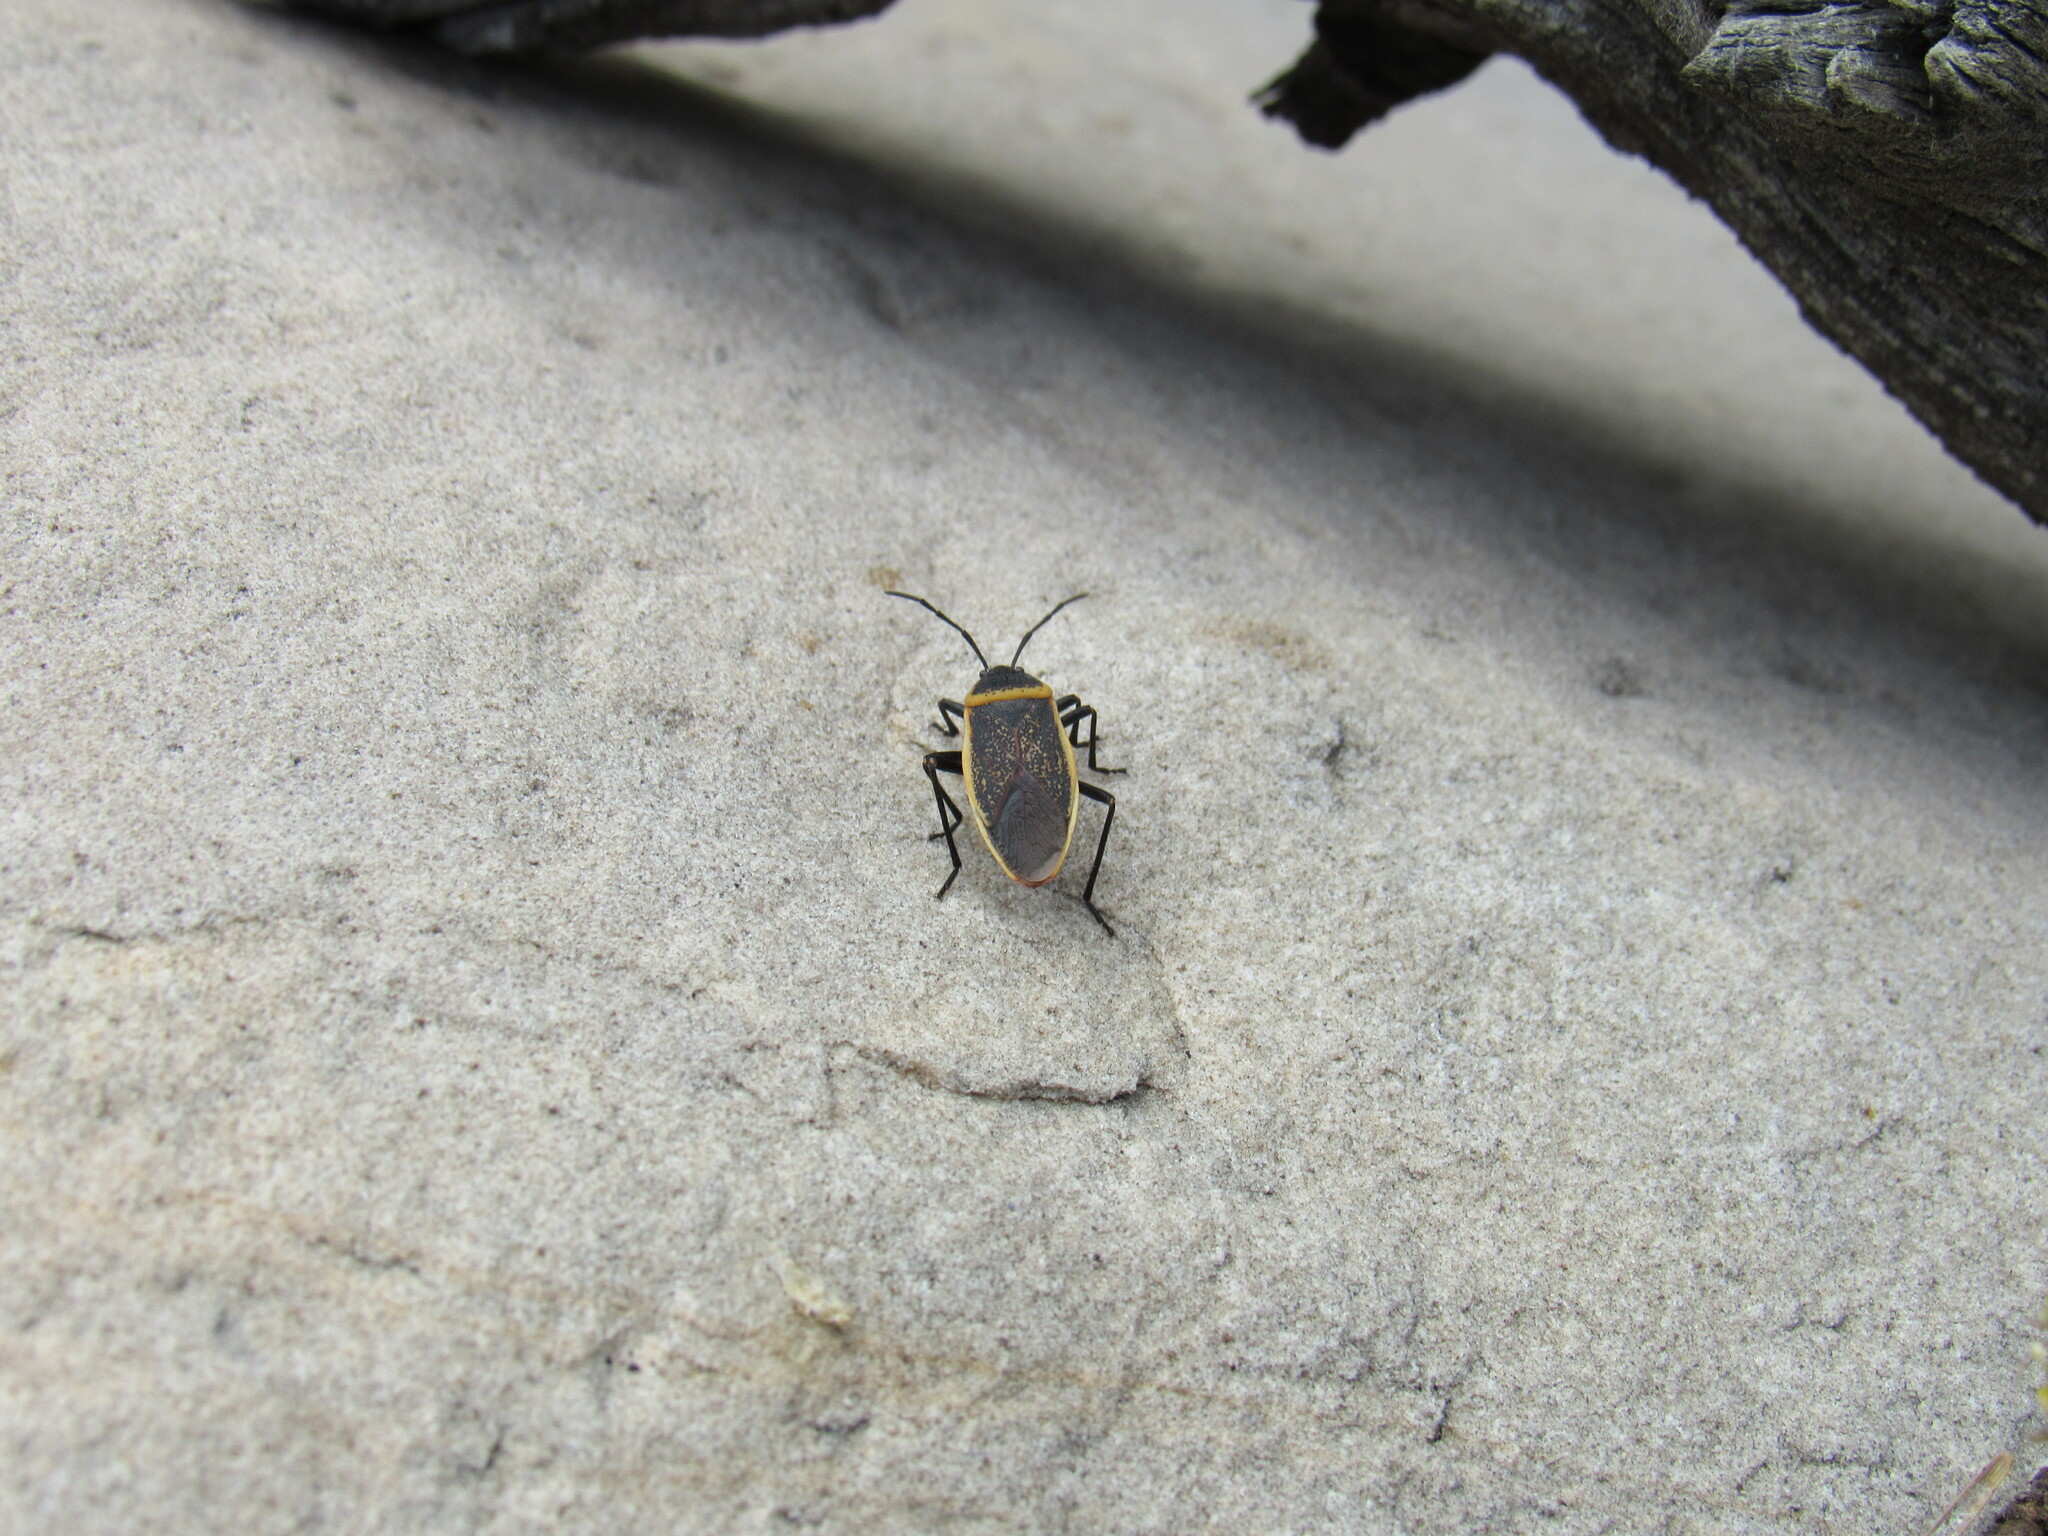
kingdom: Animalia
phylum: Arthropoda
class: Insecta
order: Hemiptera
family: Largidae
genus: Largus
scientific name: Largus californicus
